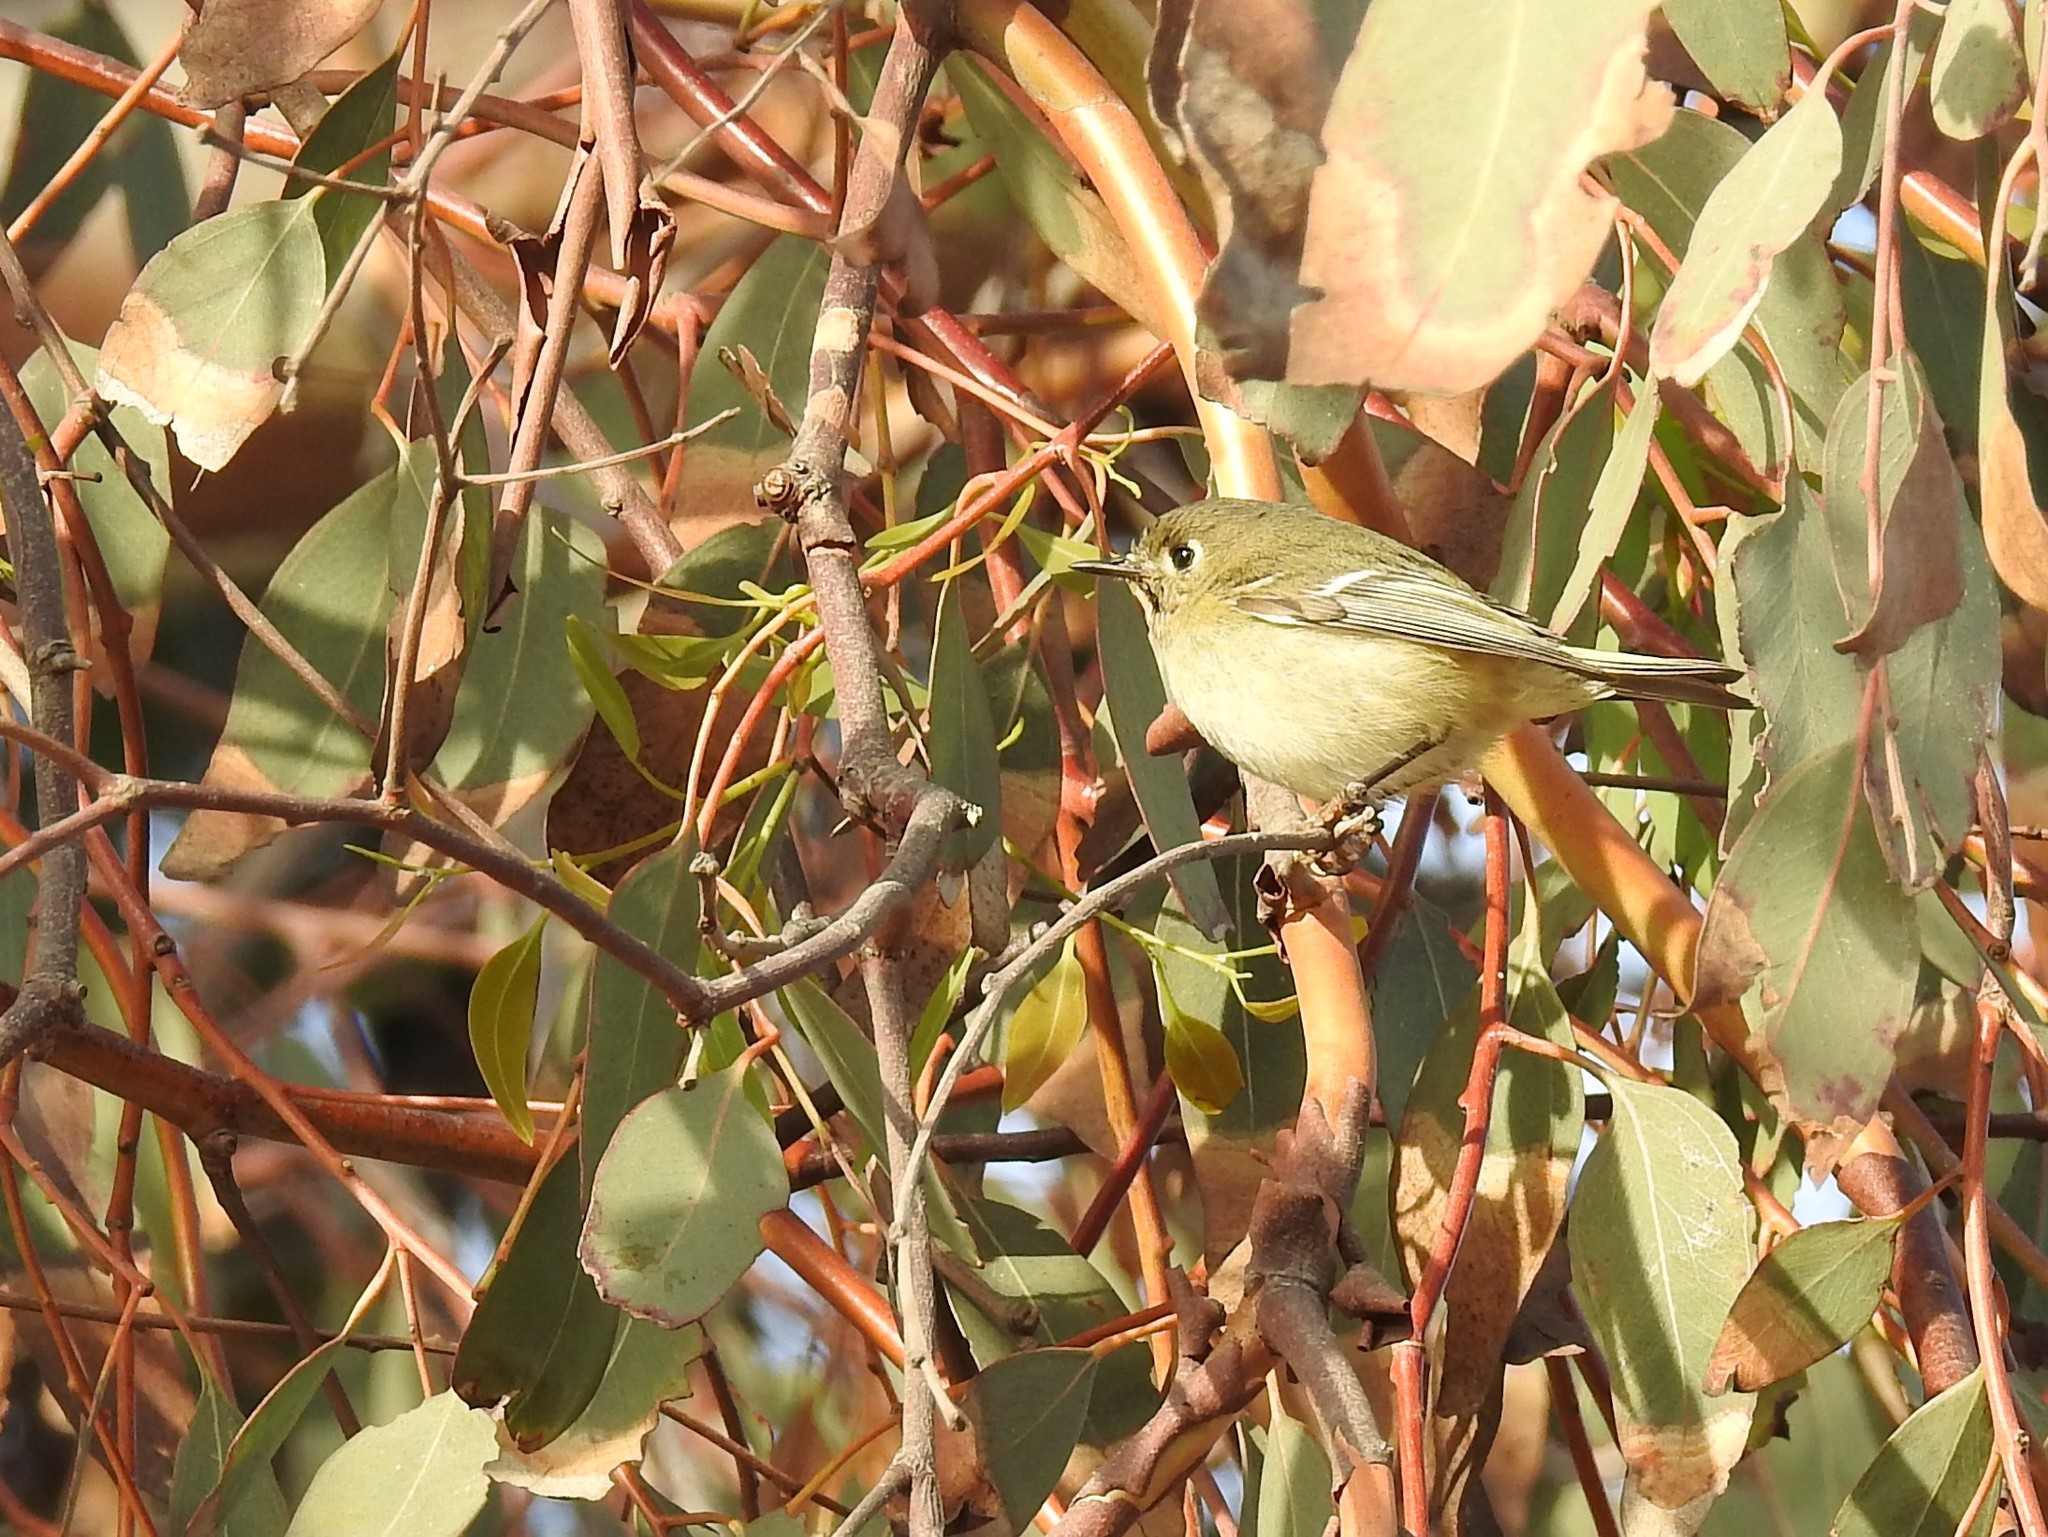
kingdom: Animalia
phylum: Chordata
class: Aves
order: Passeriformes
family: Regulidae
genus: Regulus
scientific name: Regulus calendula
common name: Ruby-crowned kinglet
